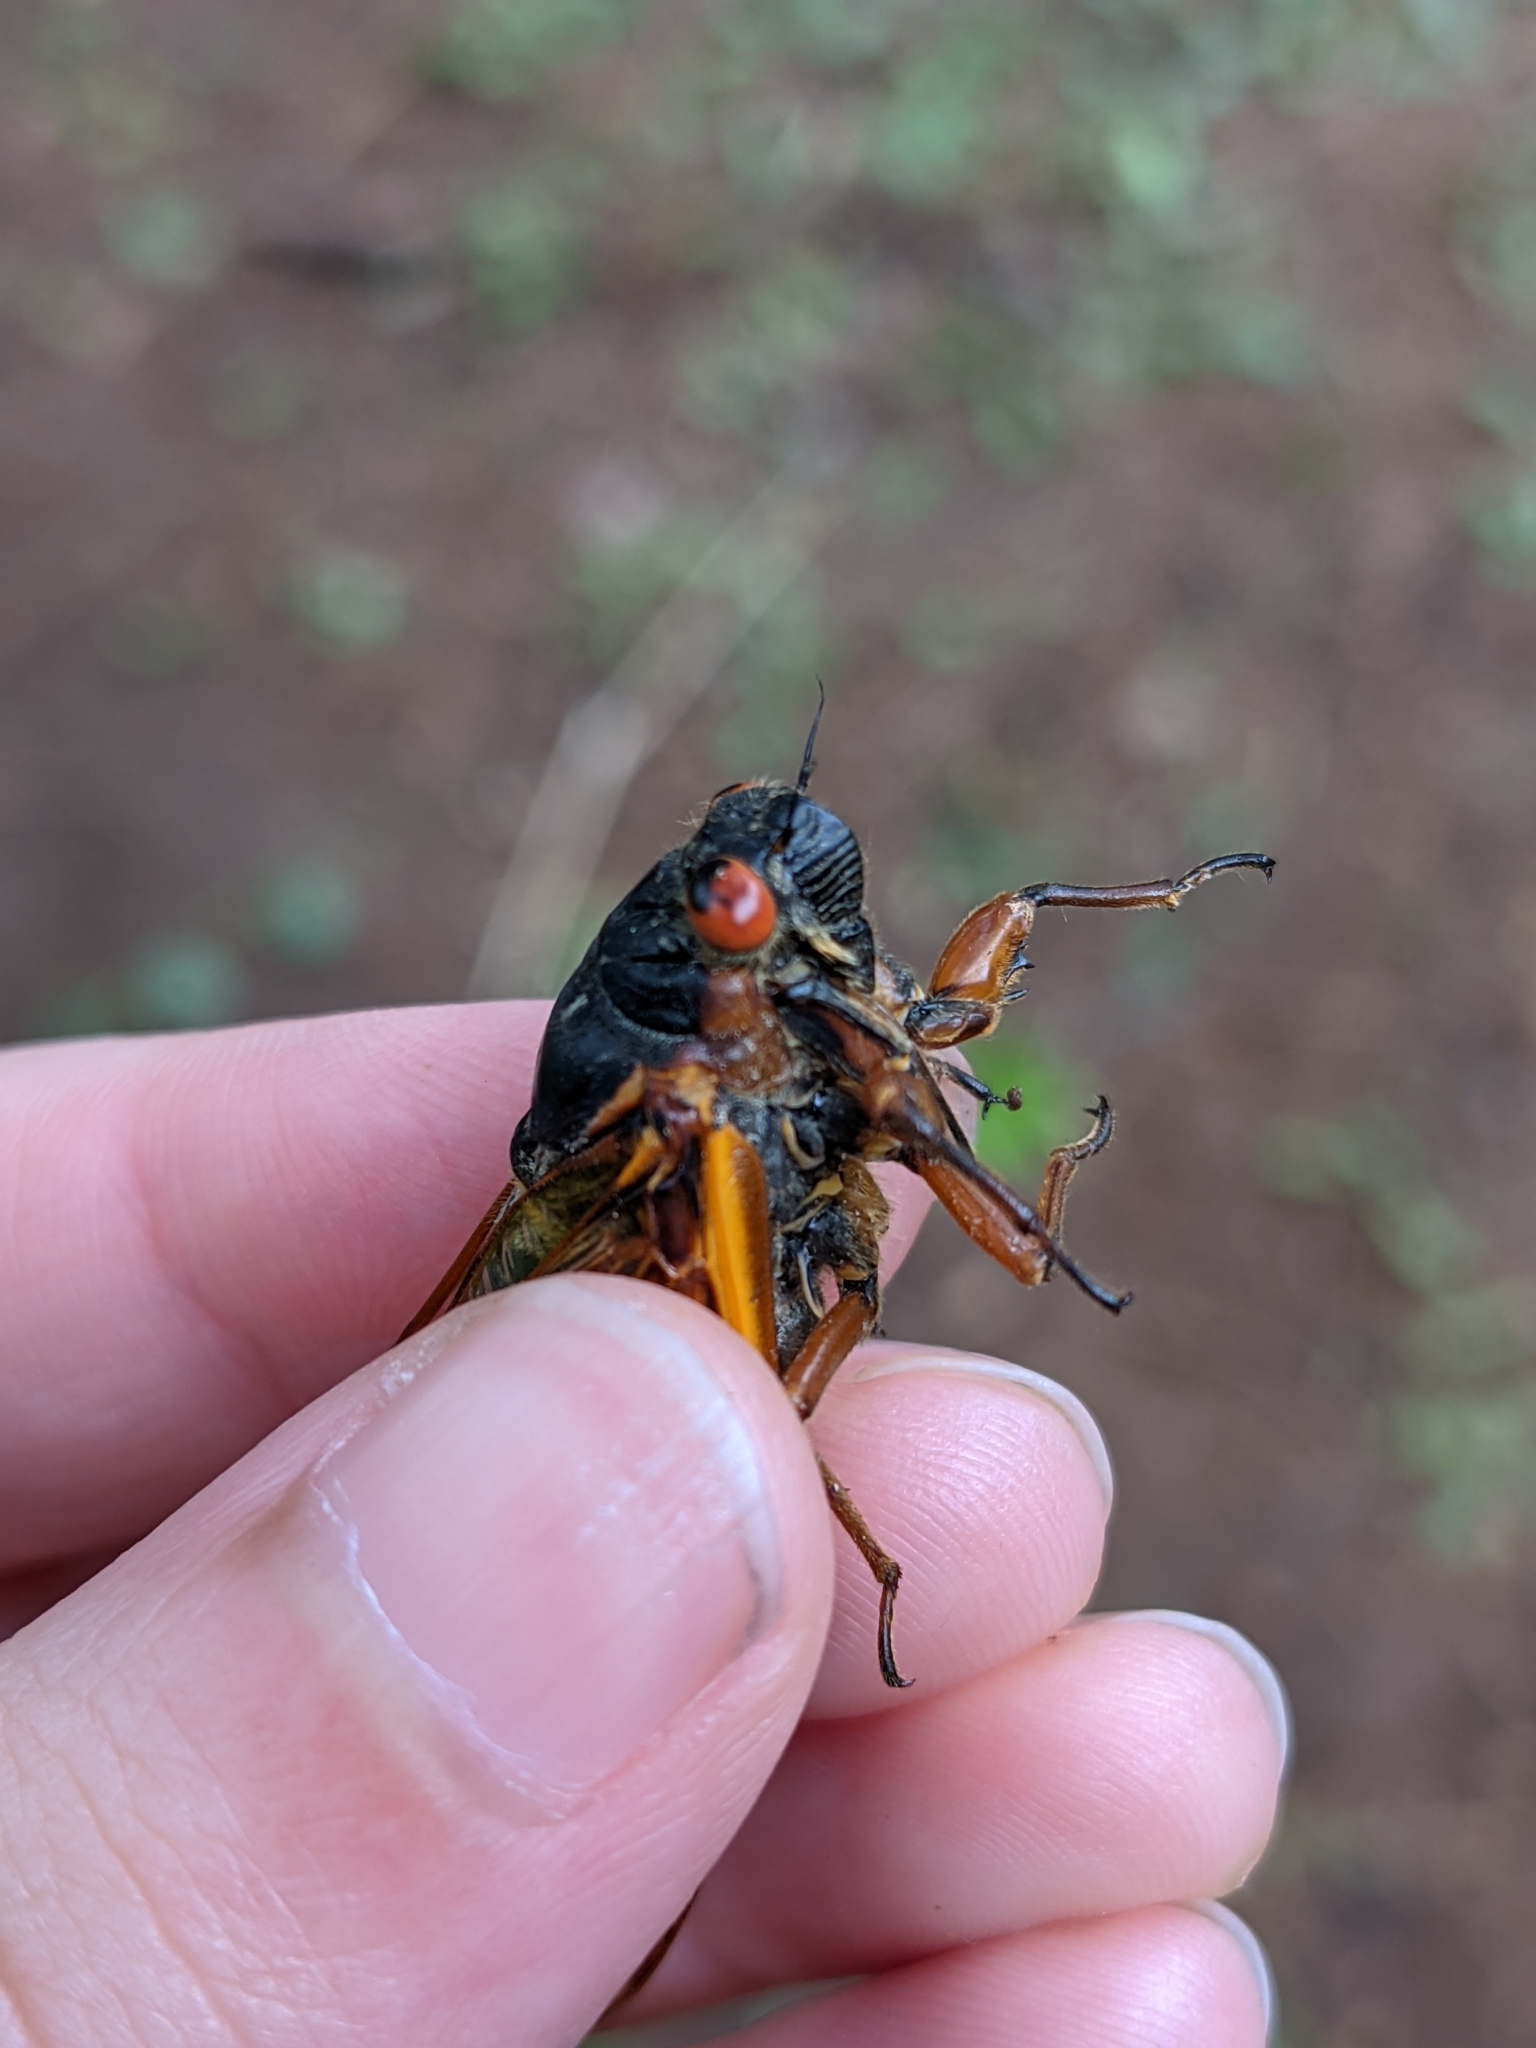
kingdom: Animalia
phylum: Arthropoda
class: Insecta
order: Hemiptera
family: Cicadidae
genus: Magicicada
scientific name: Magicicada septendecim
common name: Periodical cicada
